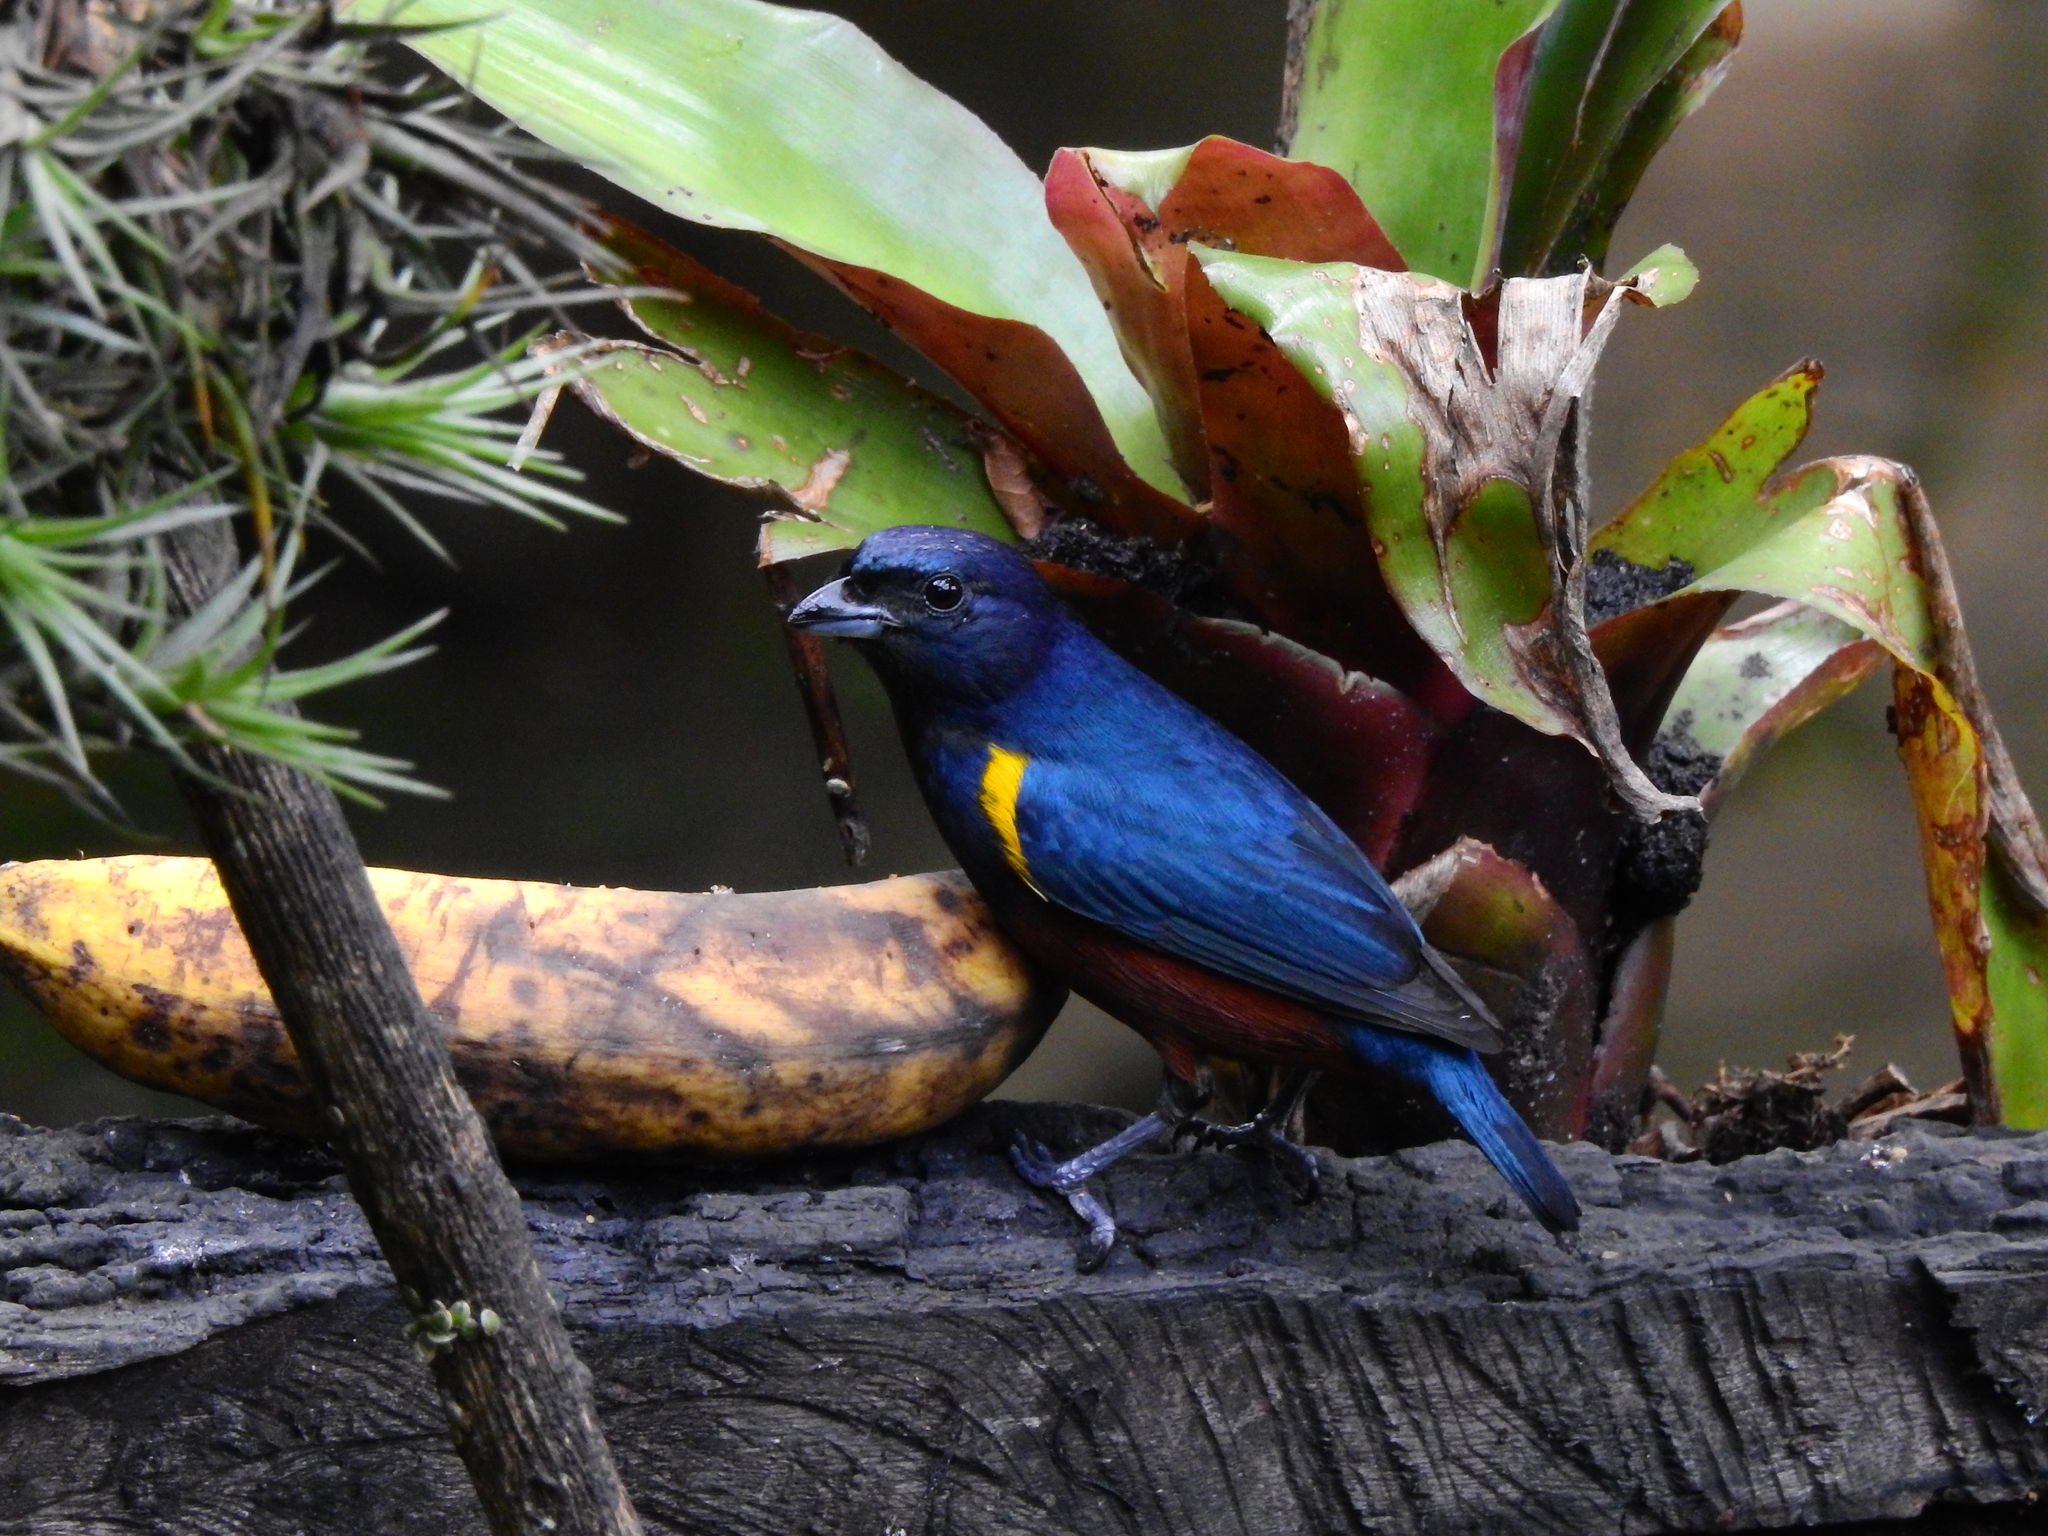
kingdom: Animalia
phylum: Chordata
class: Aves
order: Passeriformes
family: Fringillidae
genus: Euphonia
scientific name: Euphonia pectoralis
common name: Chestnut-bellied euphonia
